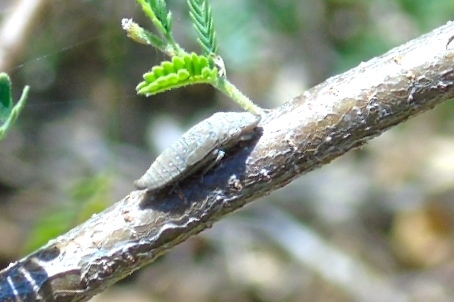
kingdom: Animalia
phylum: Arthropoda
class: Insecta
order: Hemiptera
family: Cicadellidae
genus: Homalodisca
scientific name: Homalodisca ichthyocephala
